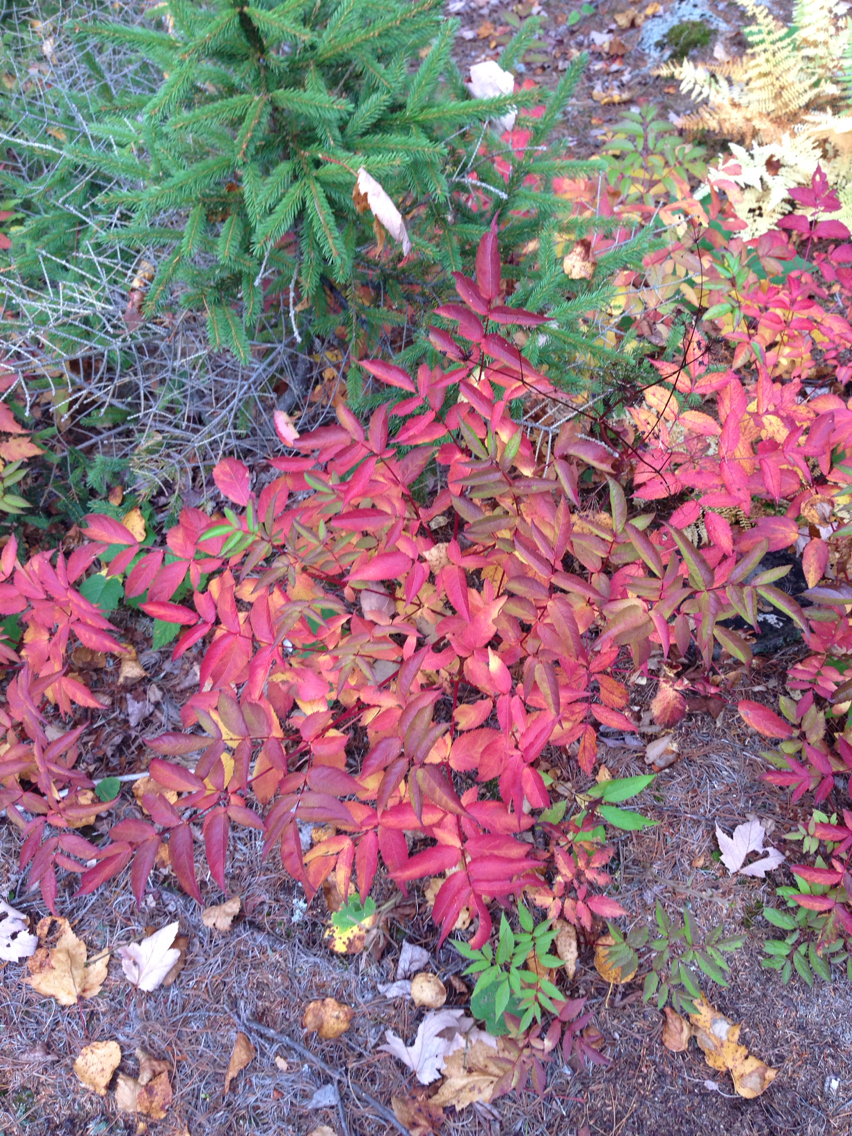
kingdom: Plantae
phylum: Tracheophyta
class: Magnoliopsida
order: Apiales
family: Araliaceae
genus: Aralia
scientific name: Aralia hispida
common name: Bristly sarsaparilla
